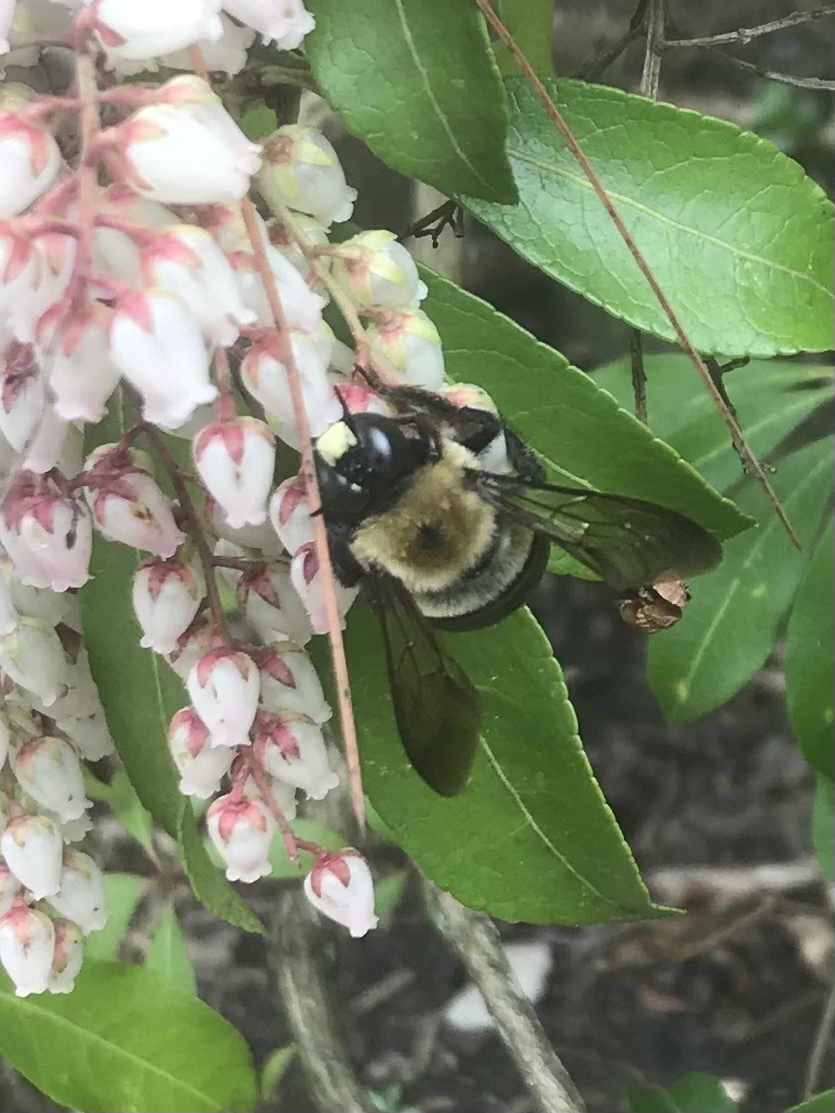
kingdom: Animalia
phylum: Arthropoda
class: Insecta
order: Hymenoptera
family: Apidae
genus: Xylocopa
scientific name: Xylocopa virginica
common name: Carpenter bee
